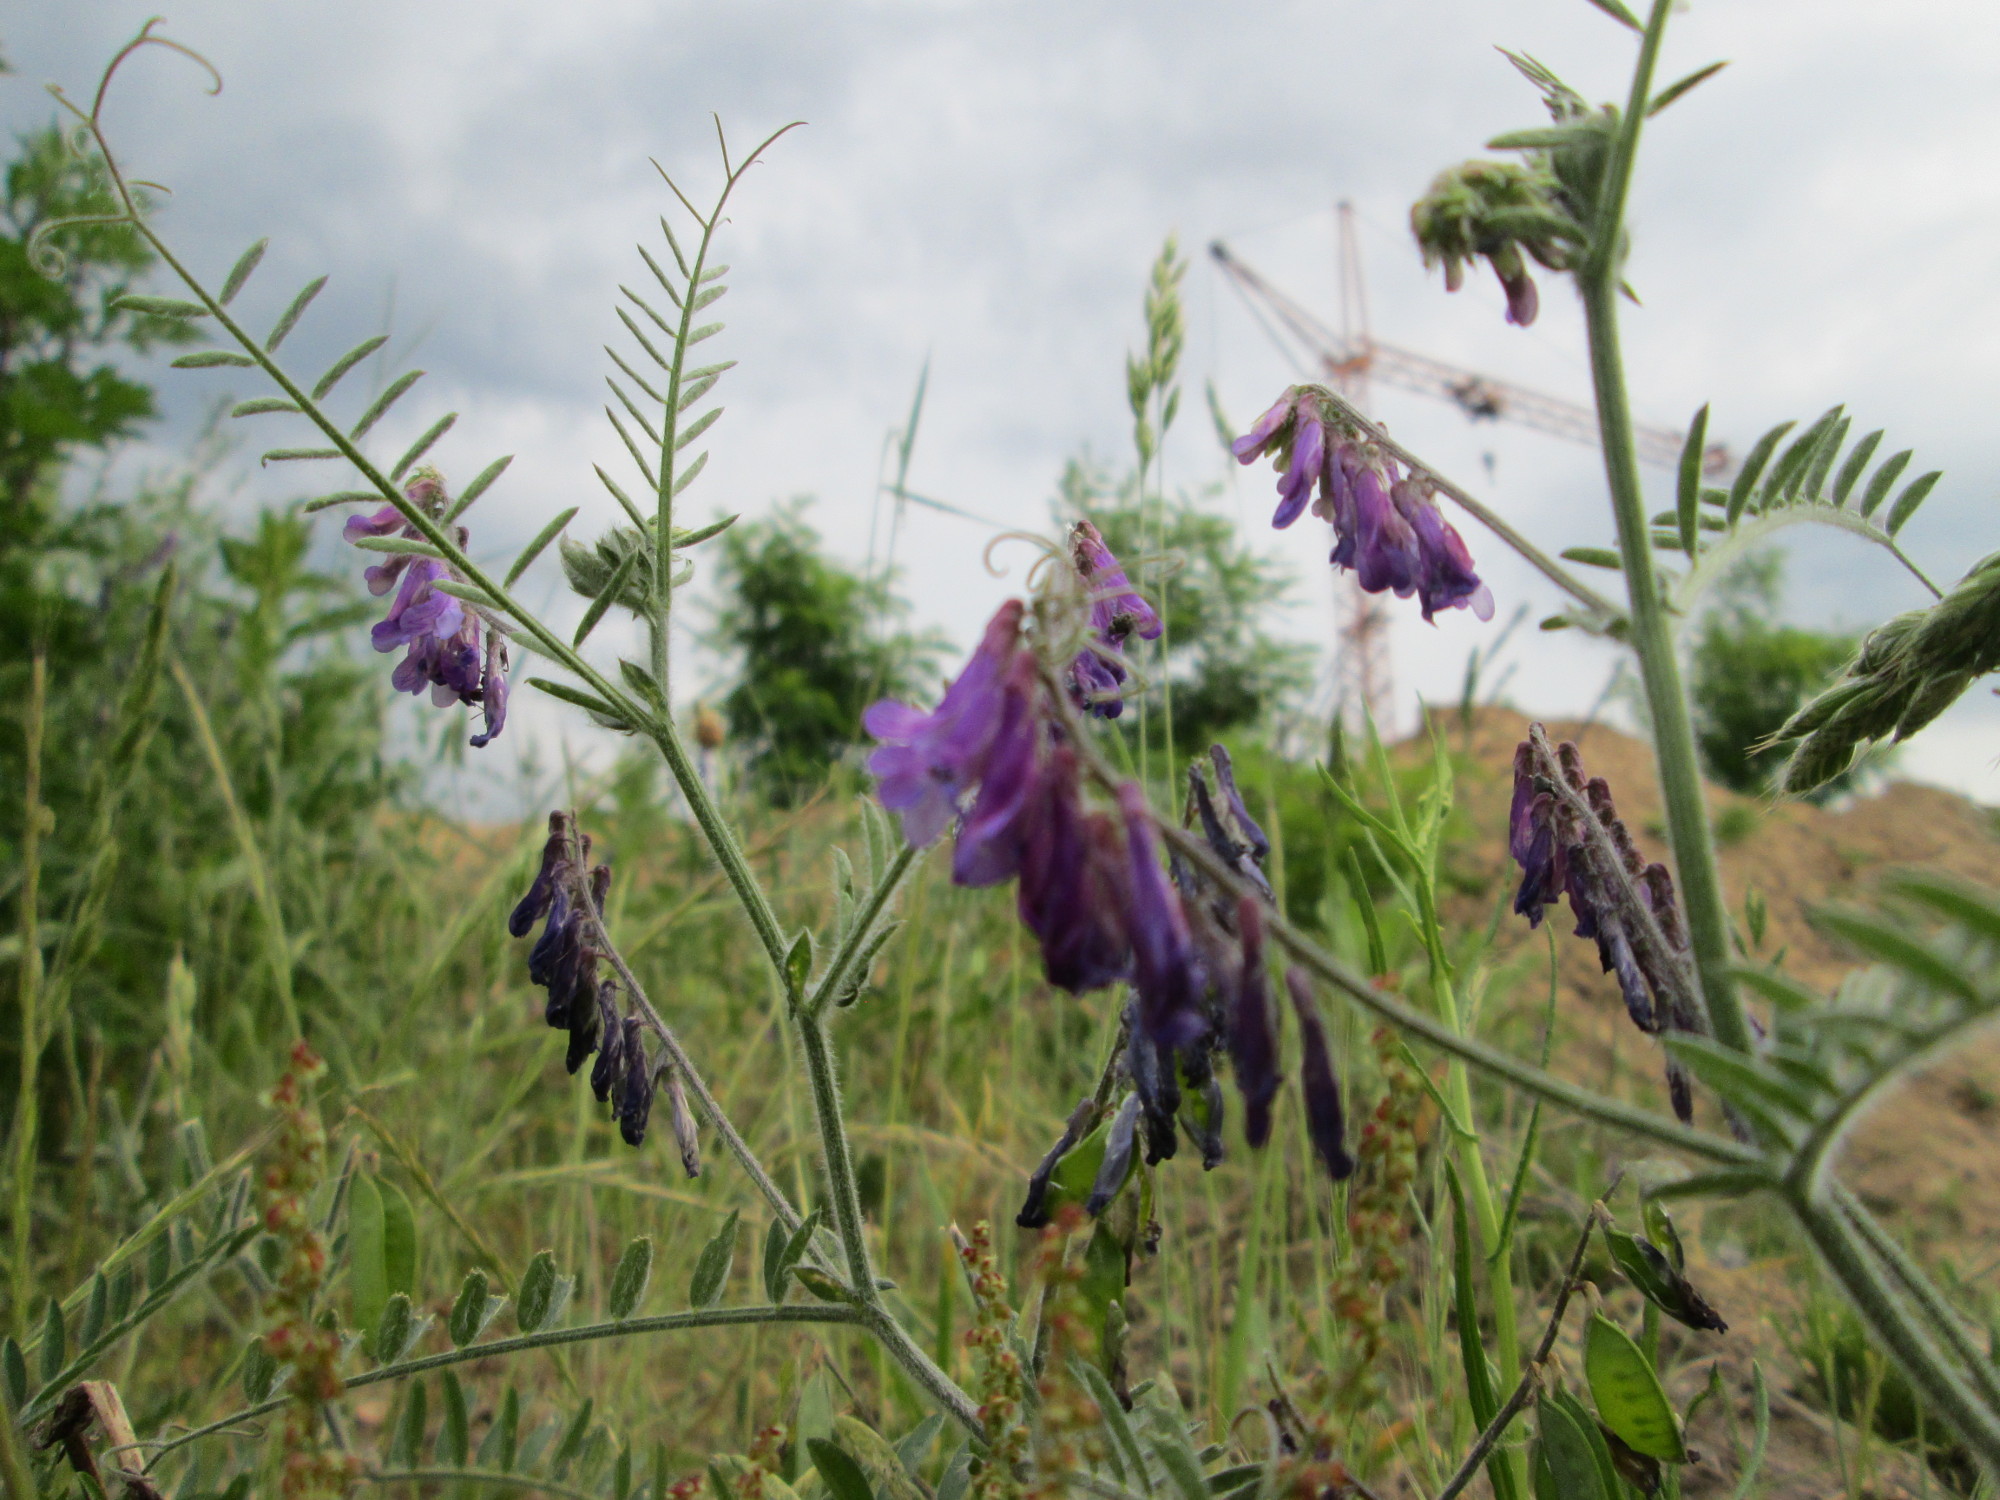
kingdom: Plantae
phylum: Tracheophyta
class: Magnoliopsida
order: Fabales
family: Fabaceae
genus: Vicia
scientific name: Vicia cracca
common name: Bird vetch
